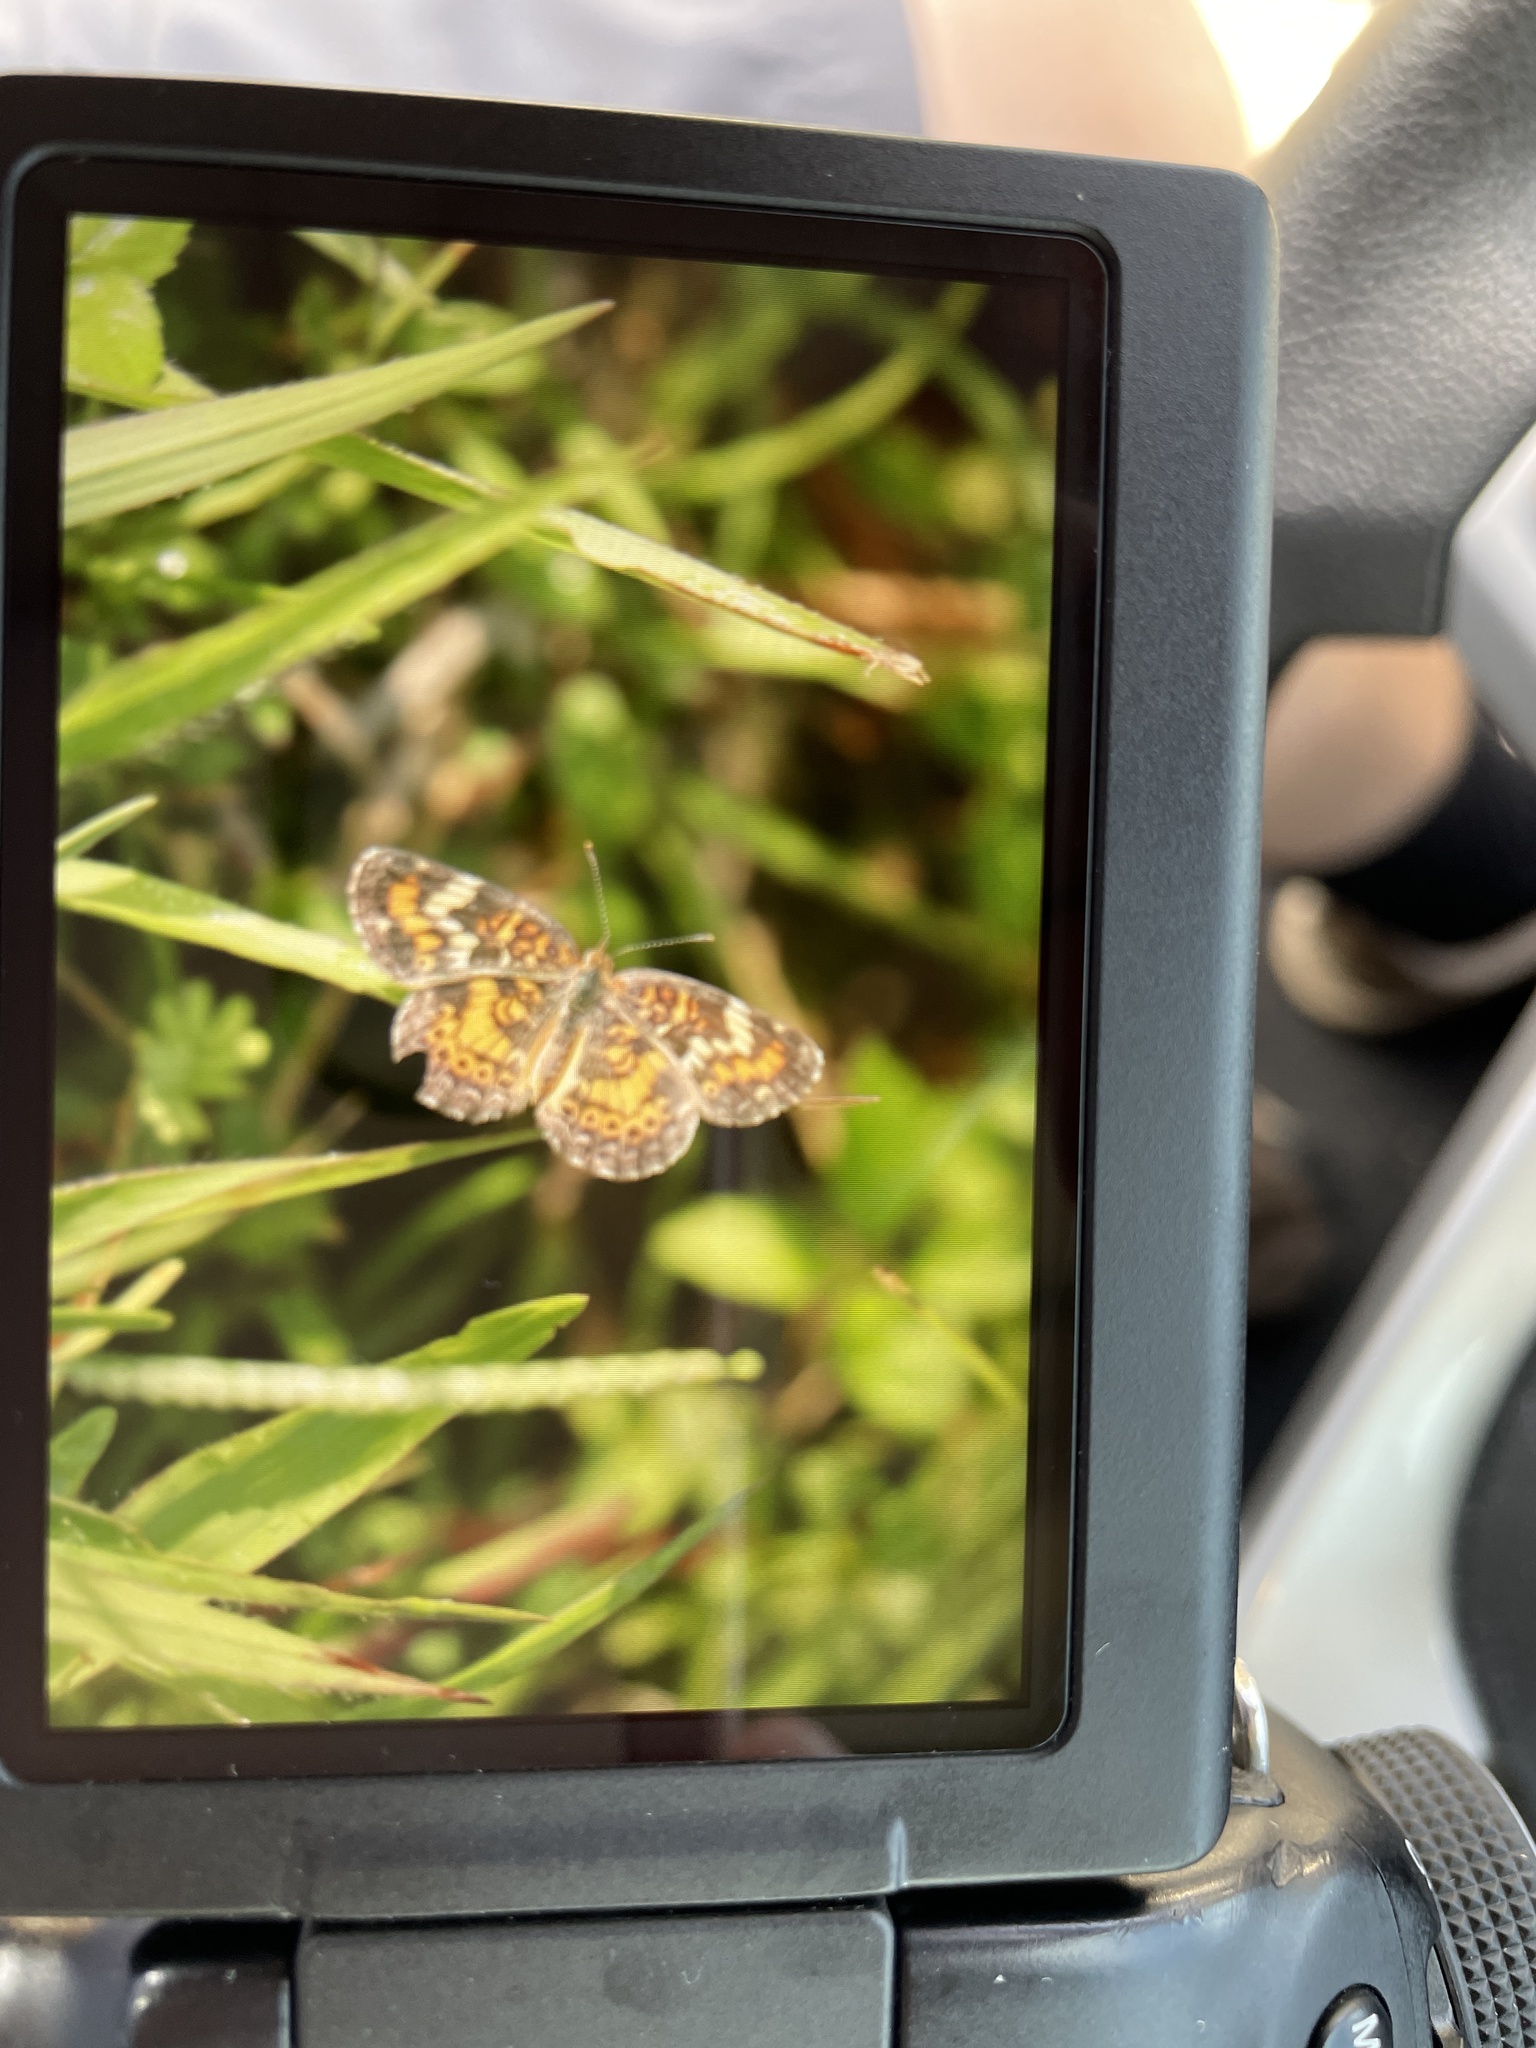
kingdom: Animalia
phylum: Arthropoda
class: Insecta
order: Lepidoptera
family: Nymphalidae
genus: Phyciodes
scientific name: Phyciodes phaon
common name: Phaon crescent
